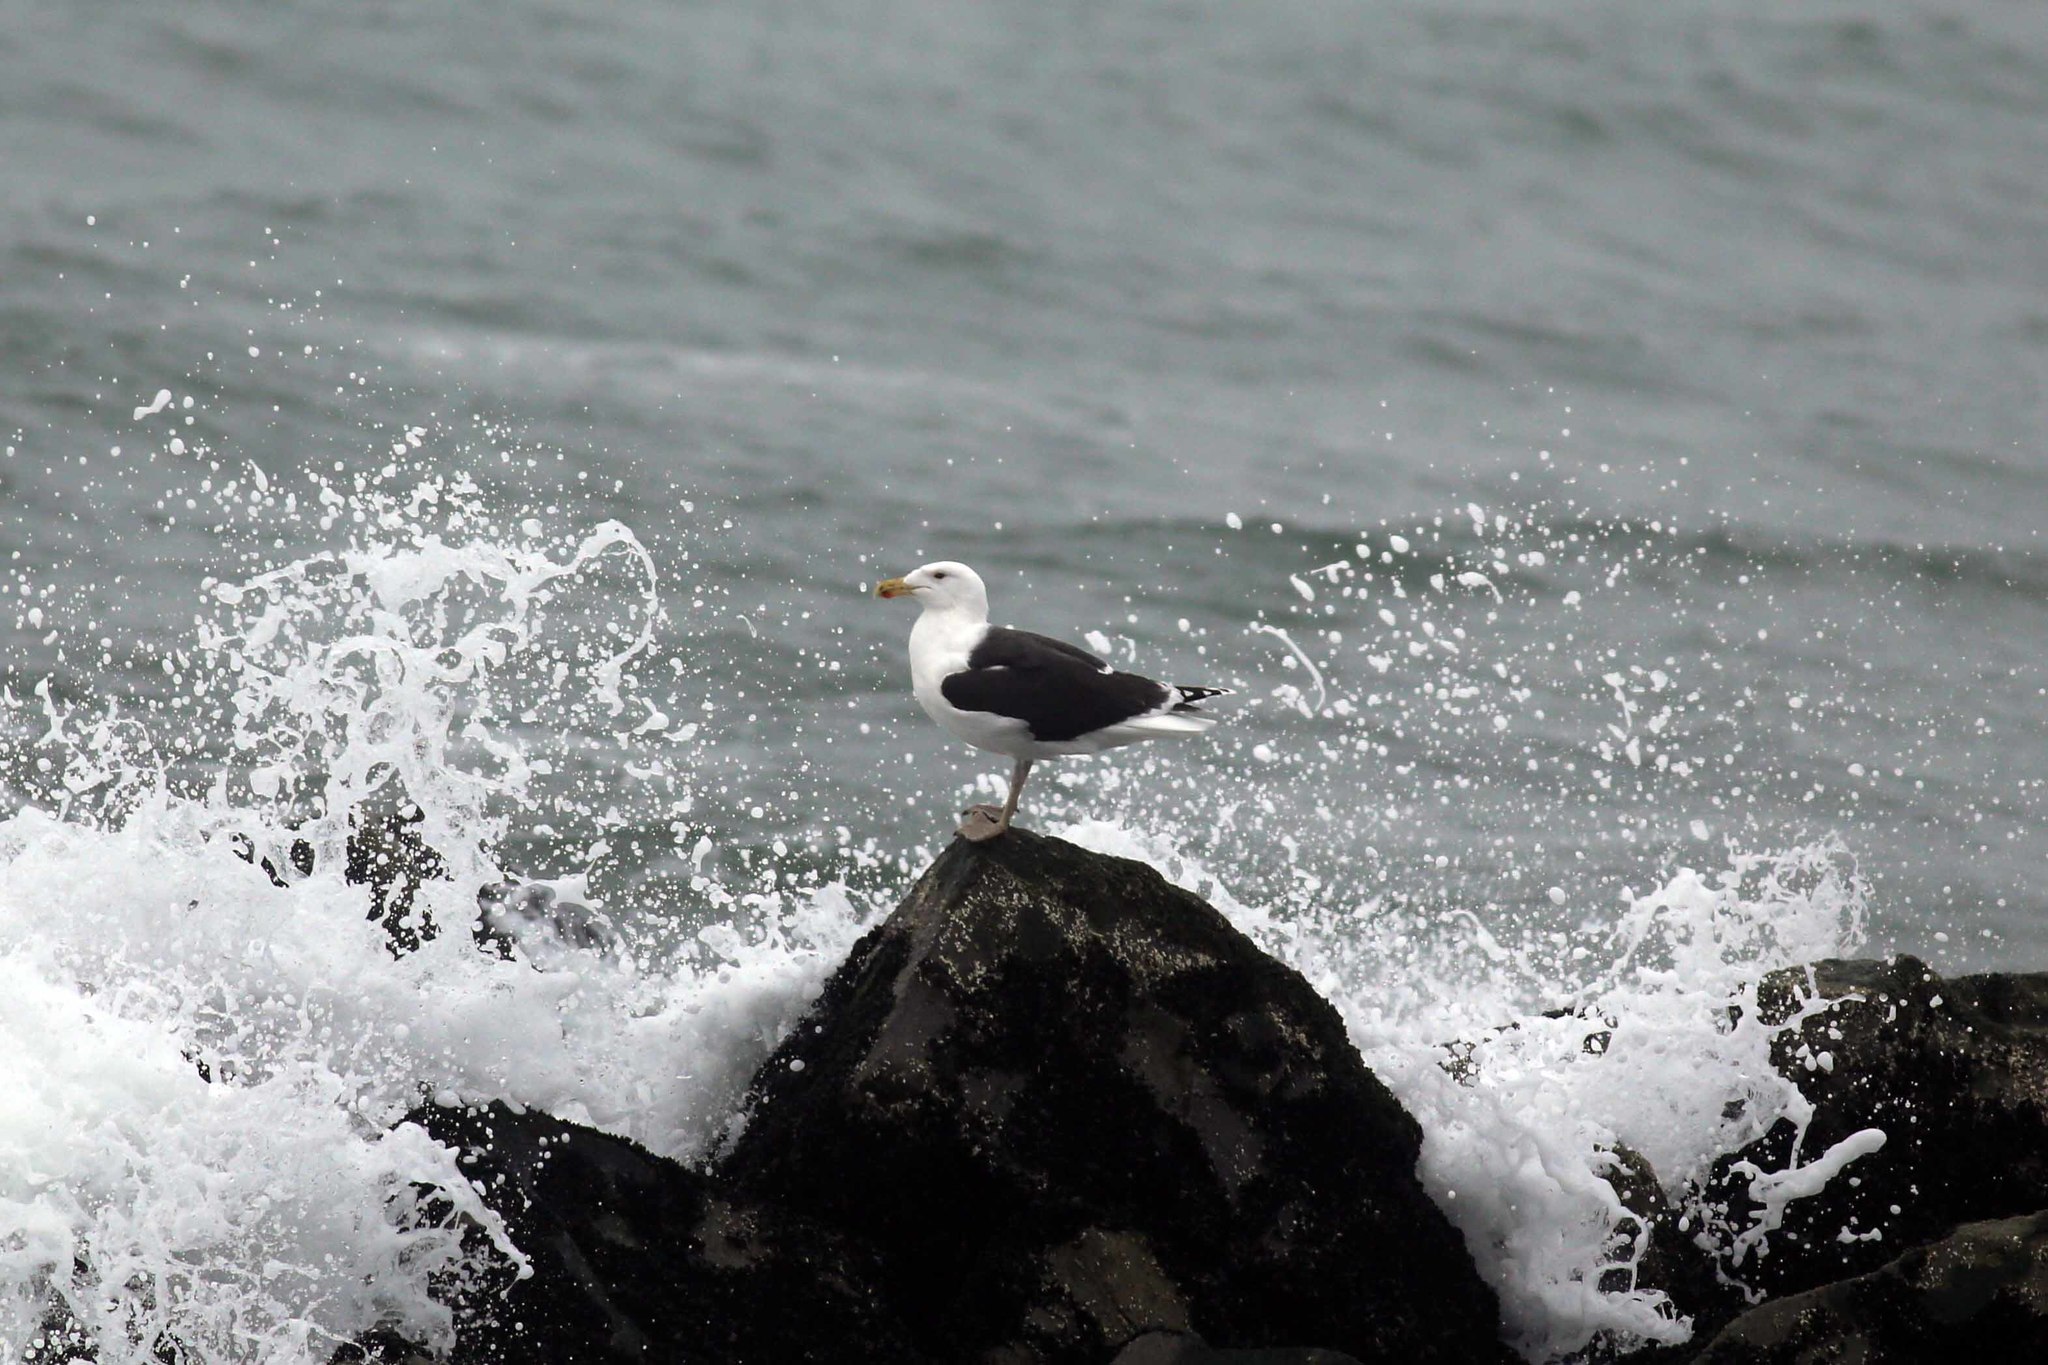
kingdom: Animalia
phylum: Chordata
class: Aves
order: Charadriiformes
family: Laridae
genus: Larus
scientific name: Larus marinus
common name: Great black-backed gull
